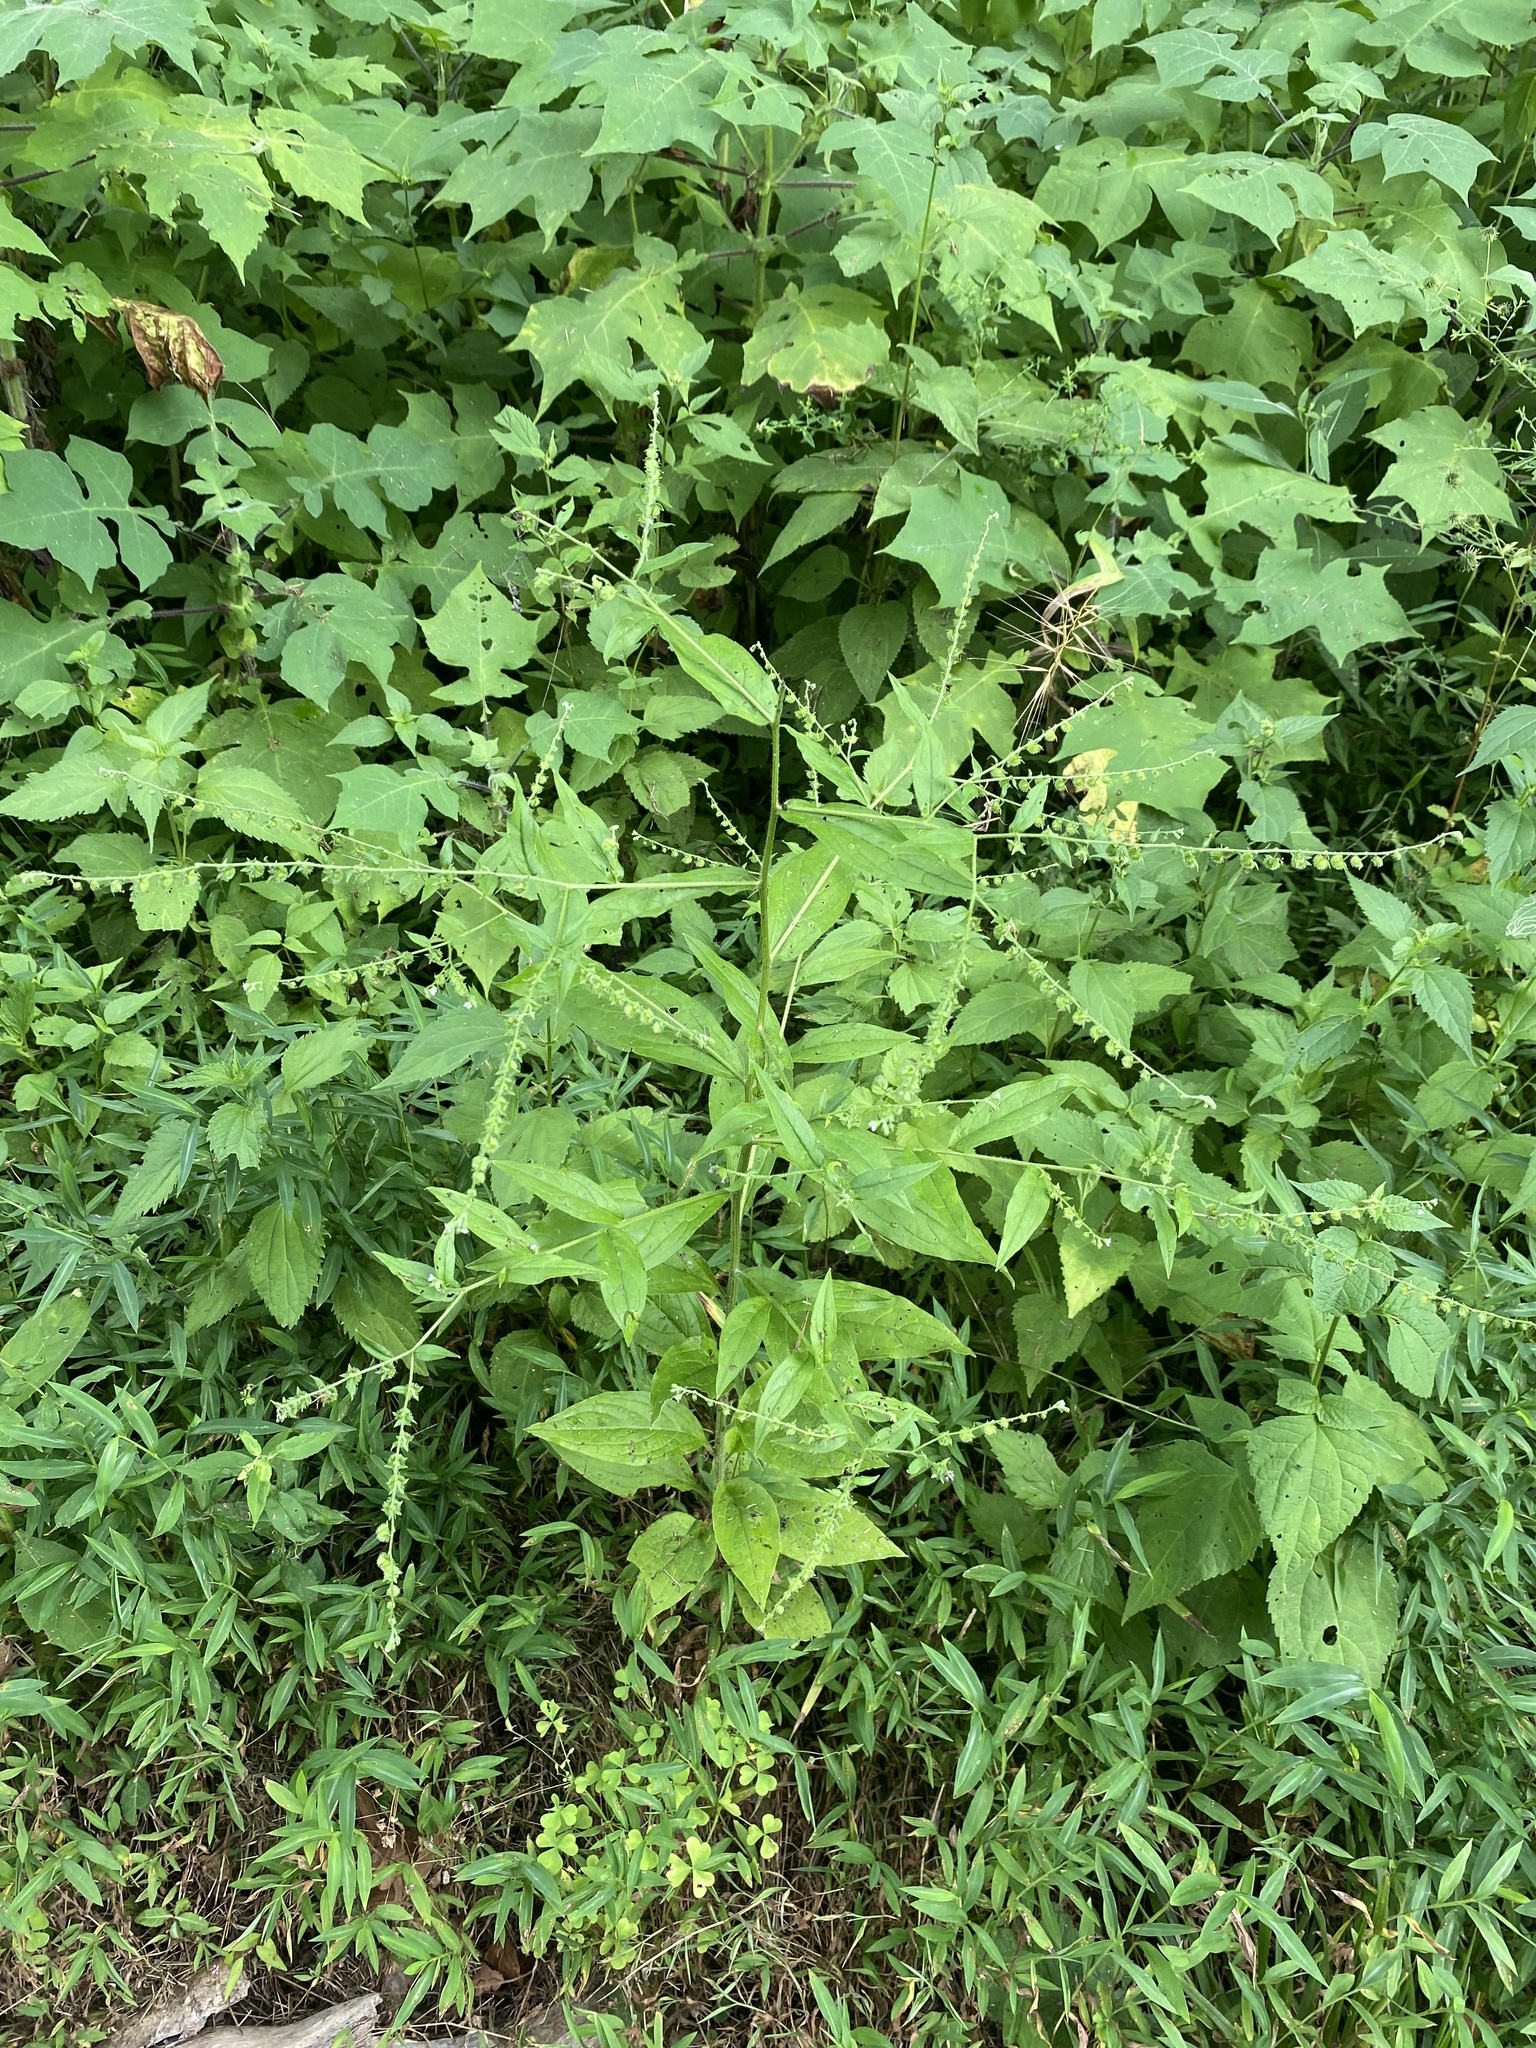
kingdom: Plantae
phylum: Tracheophyta
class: Magnoliopsida
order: Boraginales
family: Boraginaceae
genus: Hackelia
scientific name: Hackelia virginiana
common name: Beggar's-lice
